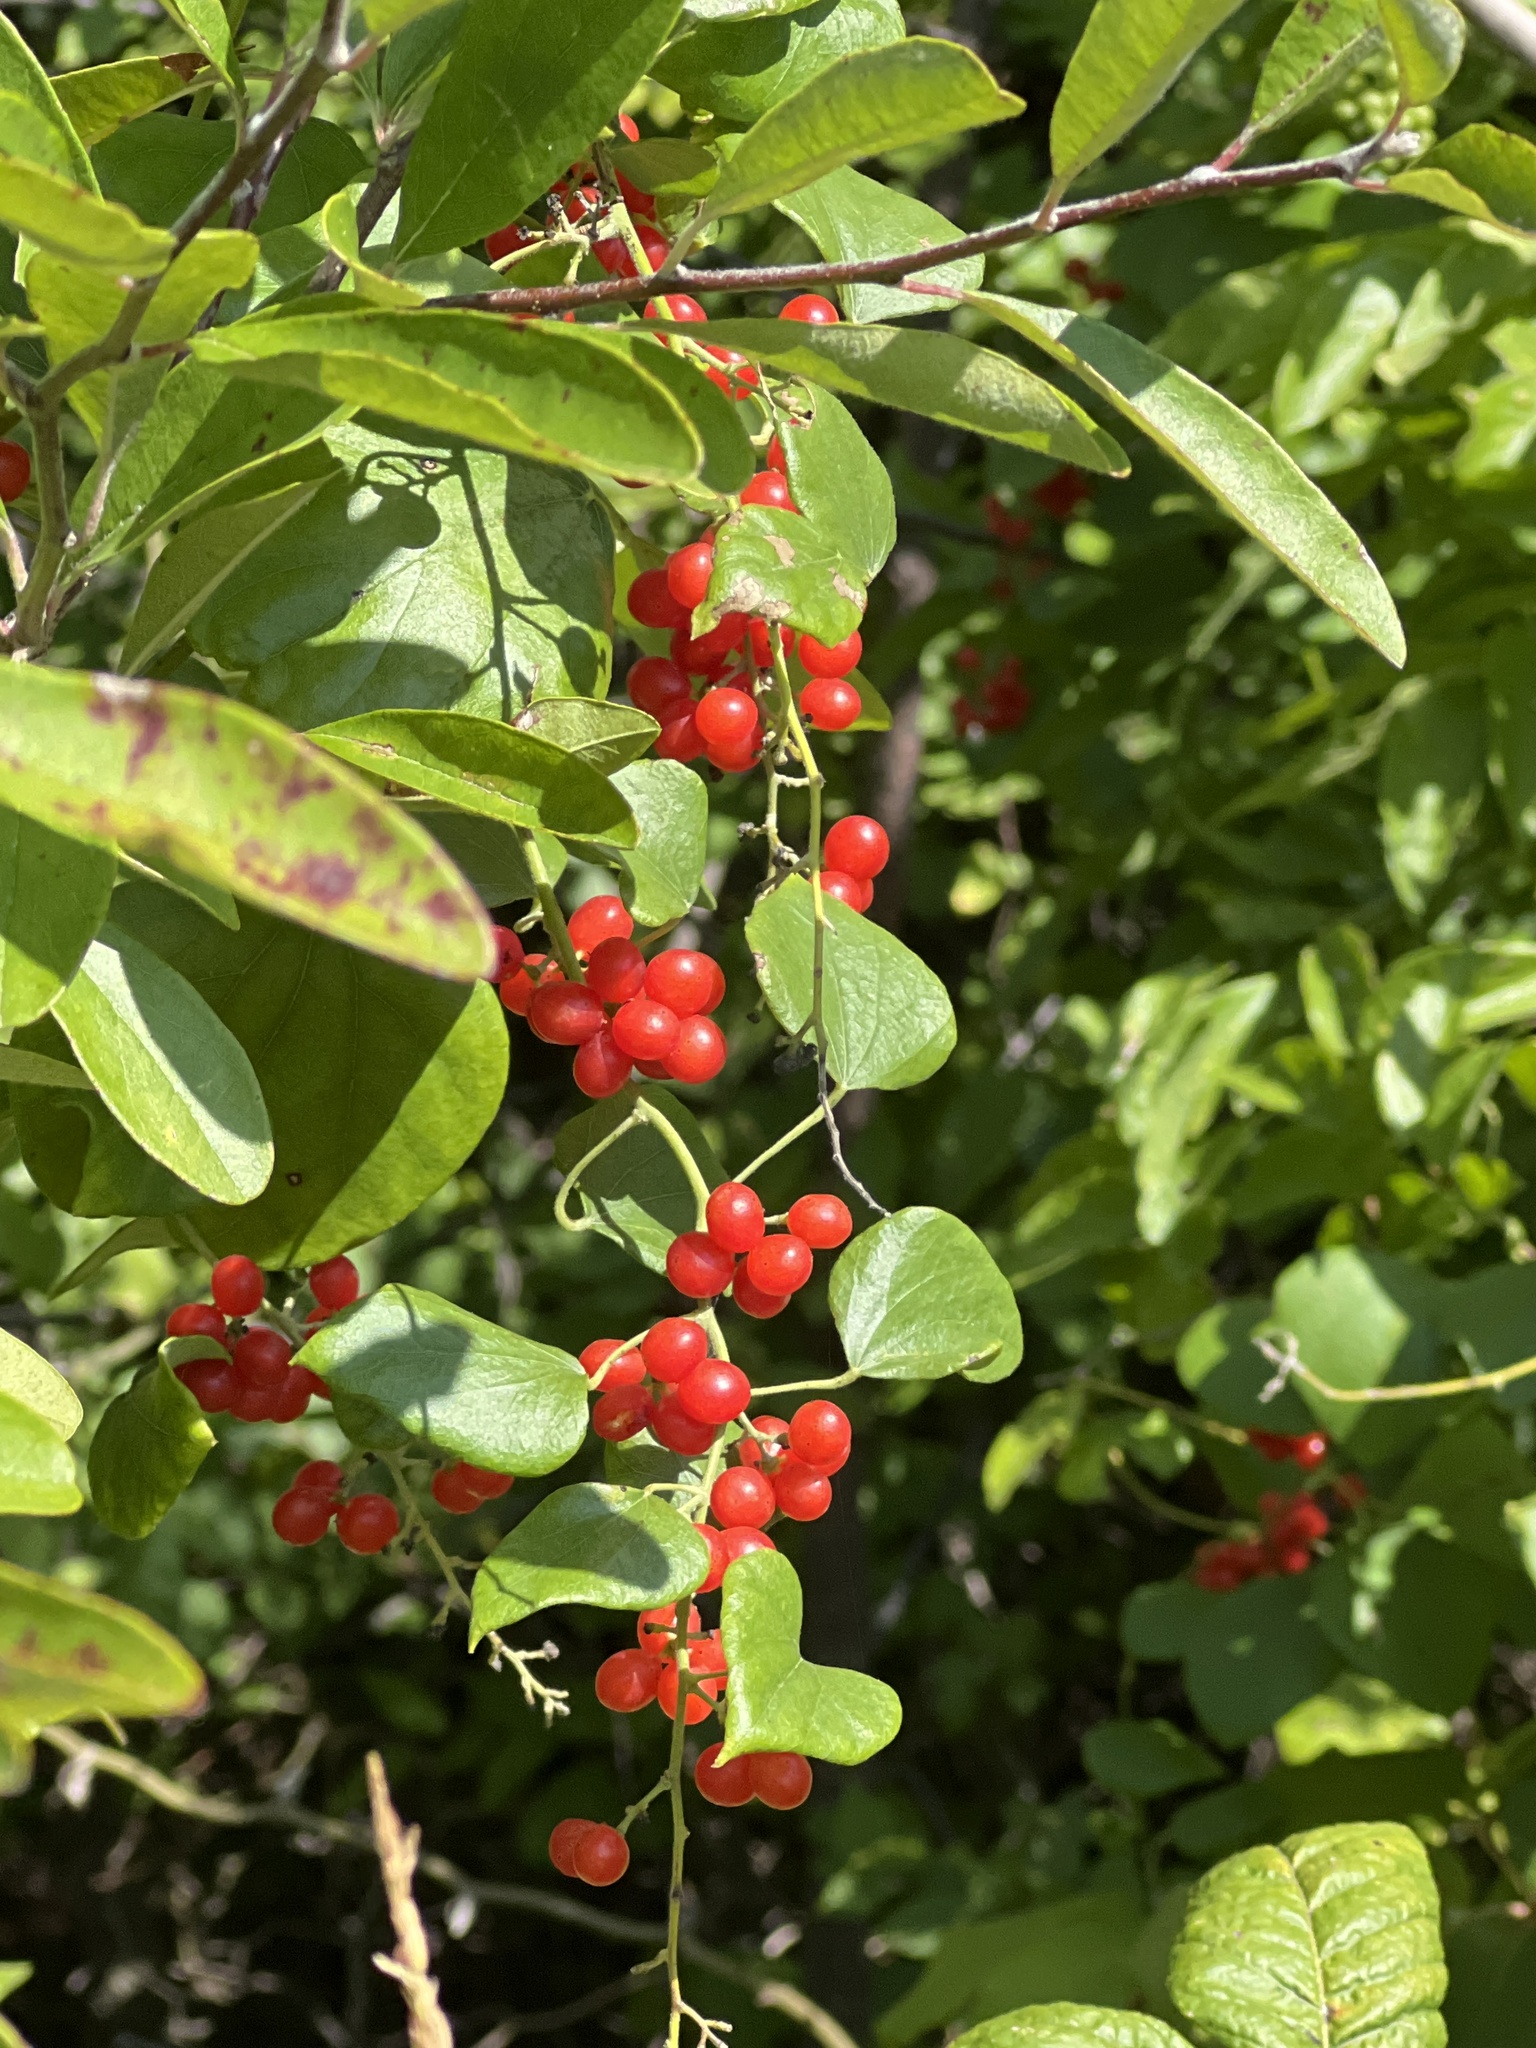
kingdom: Plantae
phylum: Tracheophyta
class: Magnoliopsida
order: Ranunculales
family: Menispermaceae
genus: Cocculus
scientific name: Cocculus carolinus
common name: Carolina moonseed
